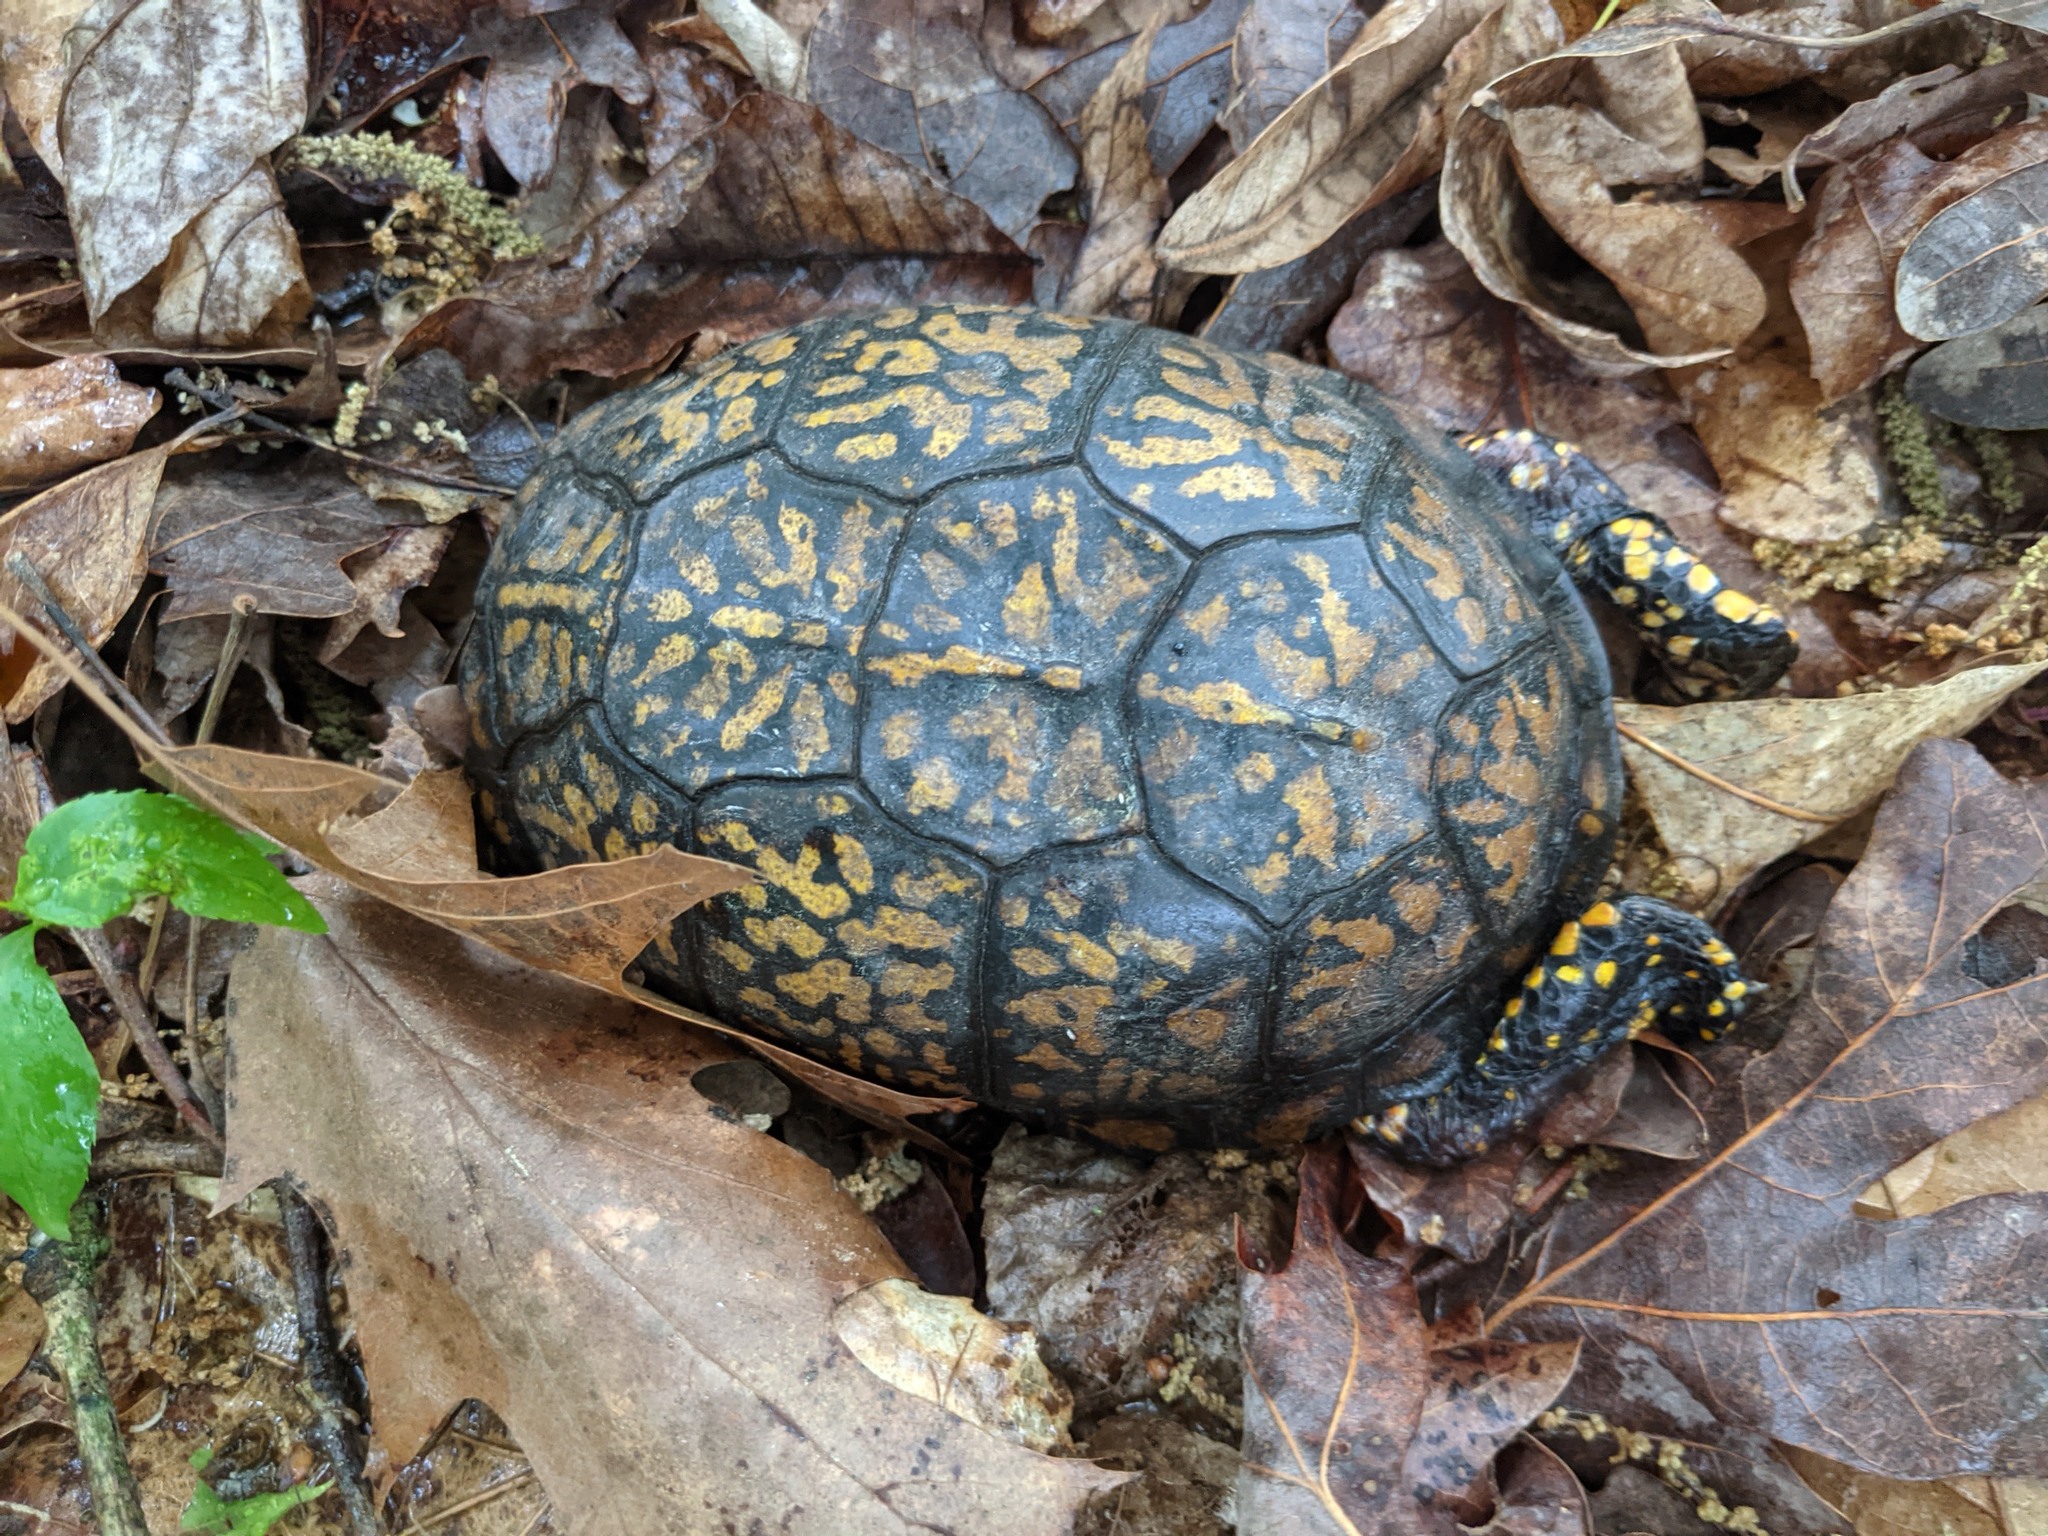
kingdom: Animalia
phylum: Chordata
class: Testudines
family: Emydidae
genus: Terrapene
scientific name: Terrapene carolina
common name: Common box turtle
